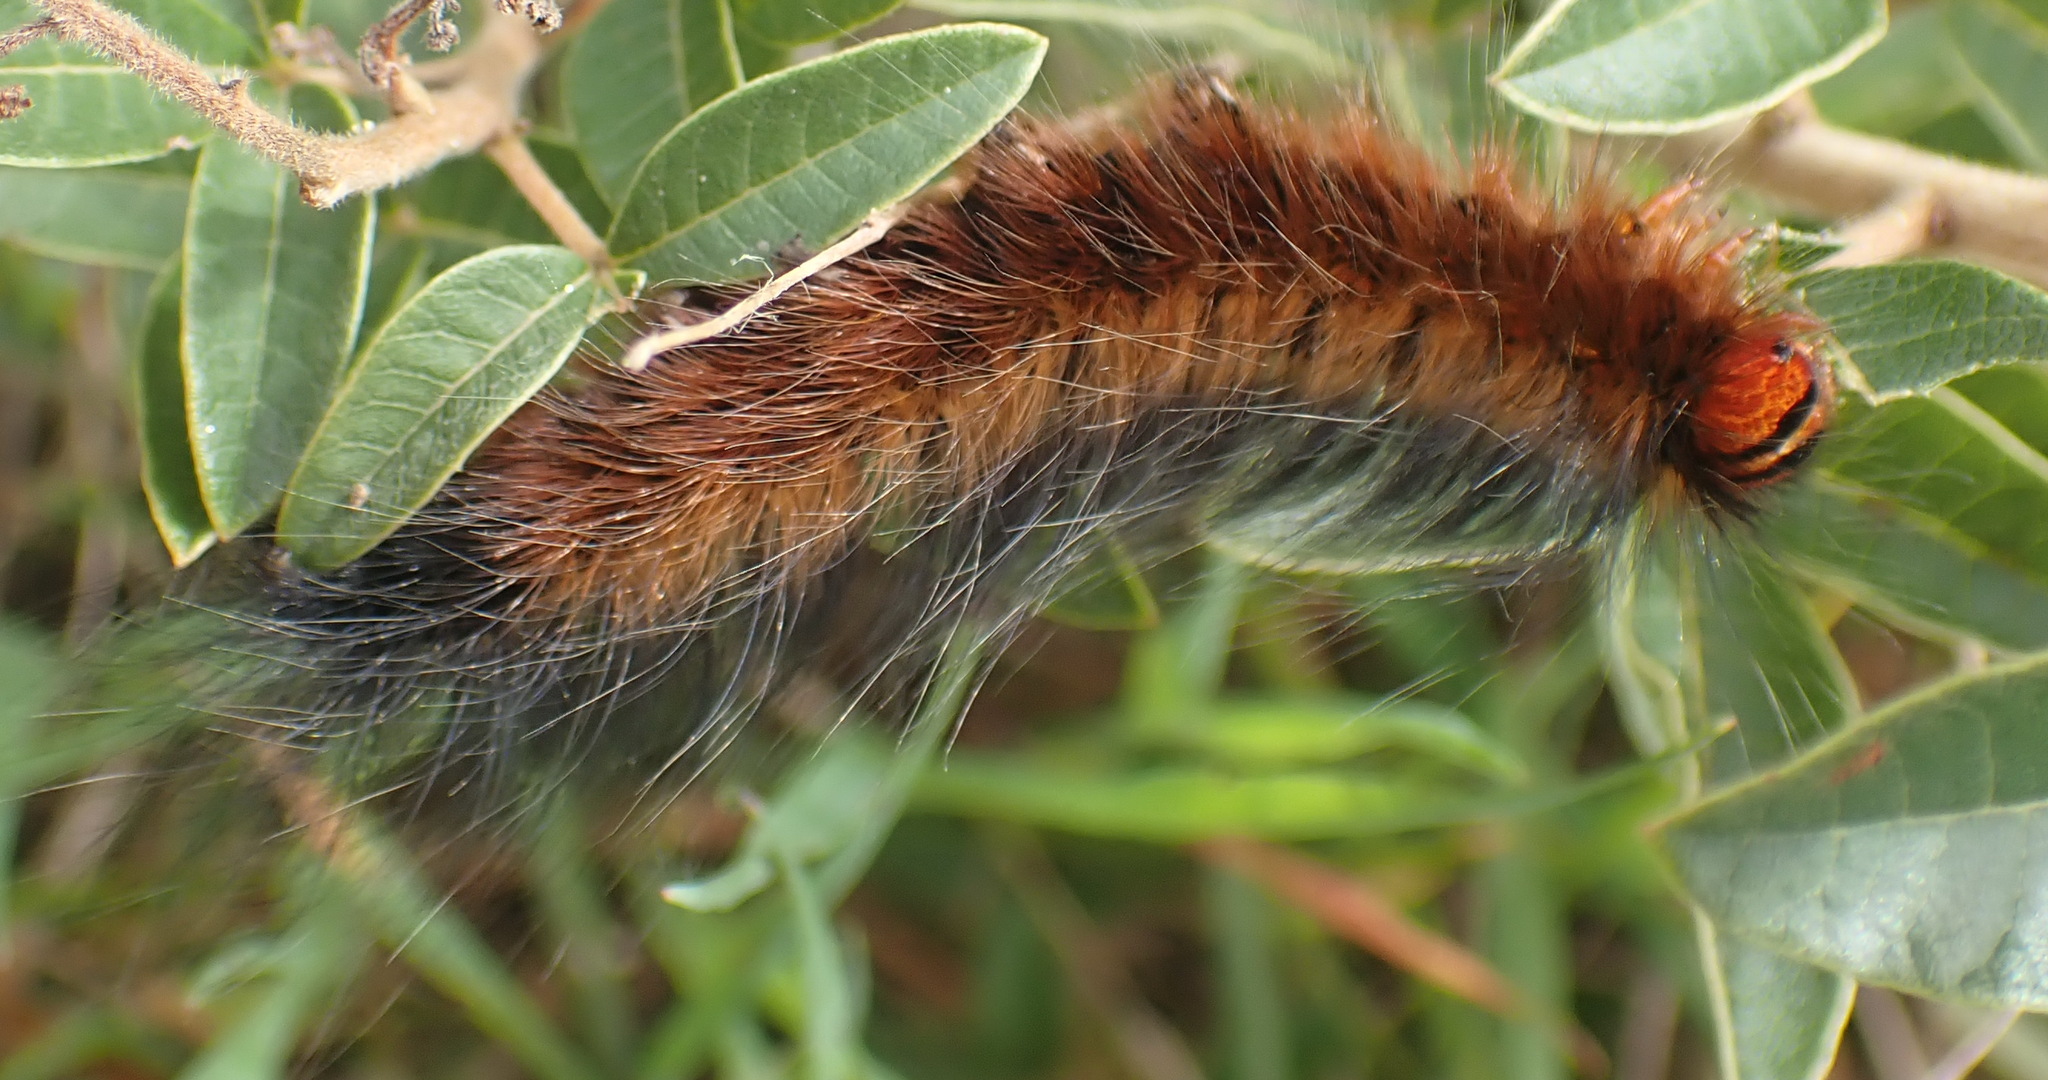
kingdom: Animalia
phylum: Arthropoda
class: Insecta
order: Lepidoptera
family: Lasiocampidae
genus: Mesocelis
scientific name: Mesocelis monticola
